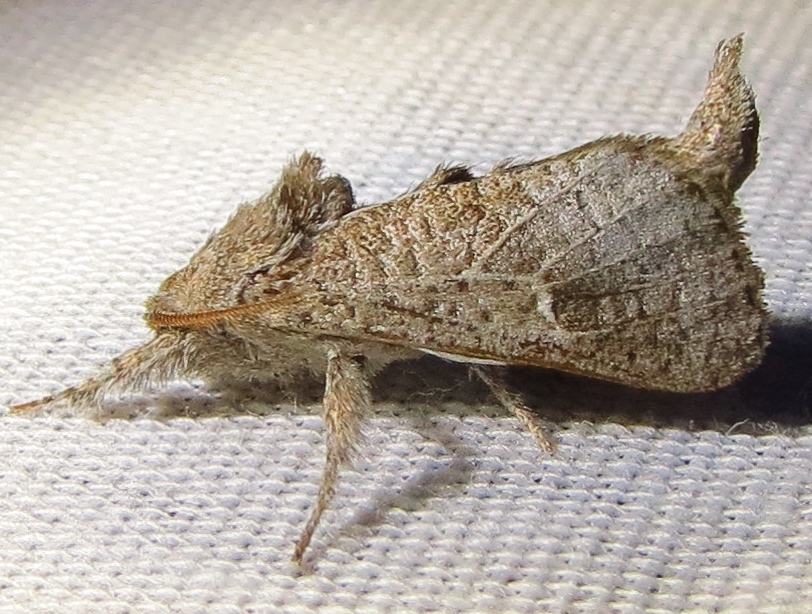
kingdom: Animalia
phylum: Arthropoda
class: Insecta
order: Lepidoptera
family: Cossidae
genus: Givira
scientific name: Givira anna
